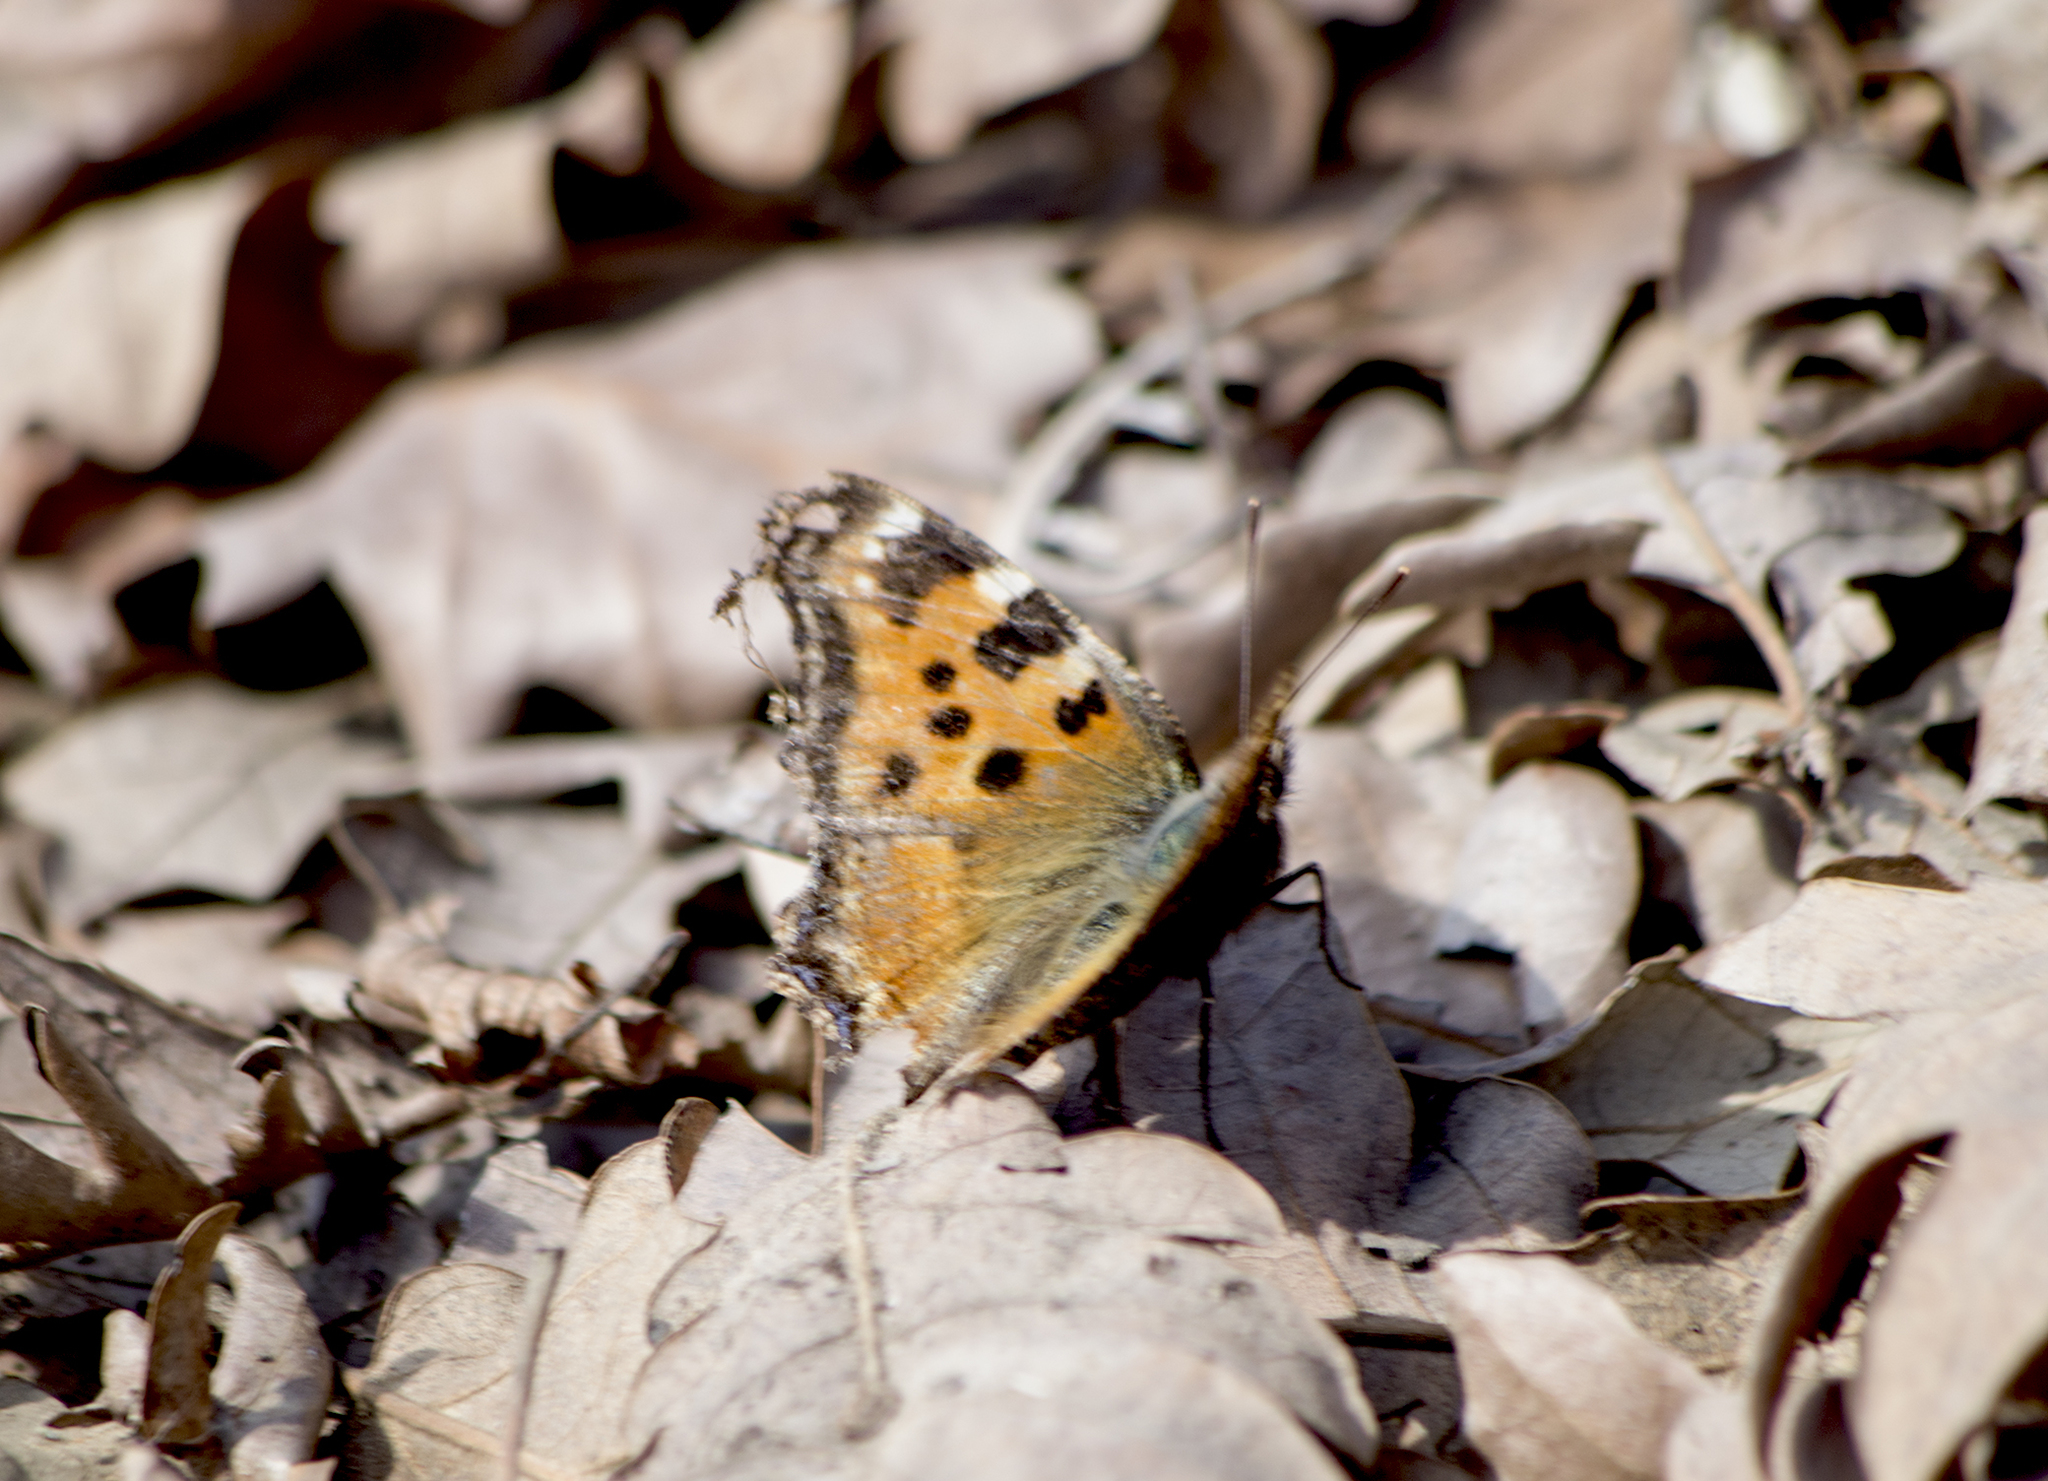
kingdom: Animalia
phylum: Arthropoda
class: Insecta
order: Lepidoptera
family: Nymphalidae
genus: Nymphalis
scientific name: Nymphalis polychloros
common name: Large tortoiseshell
